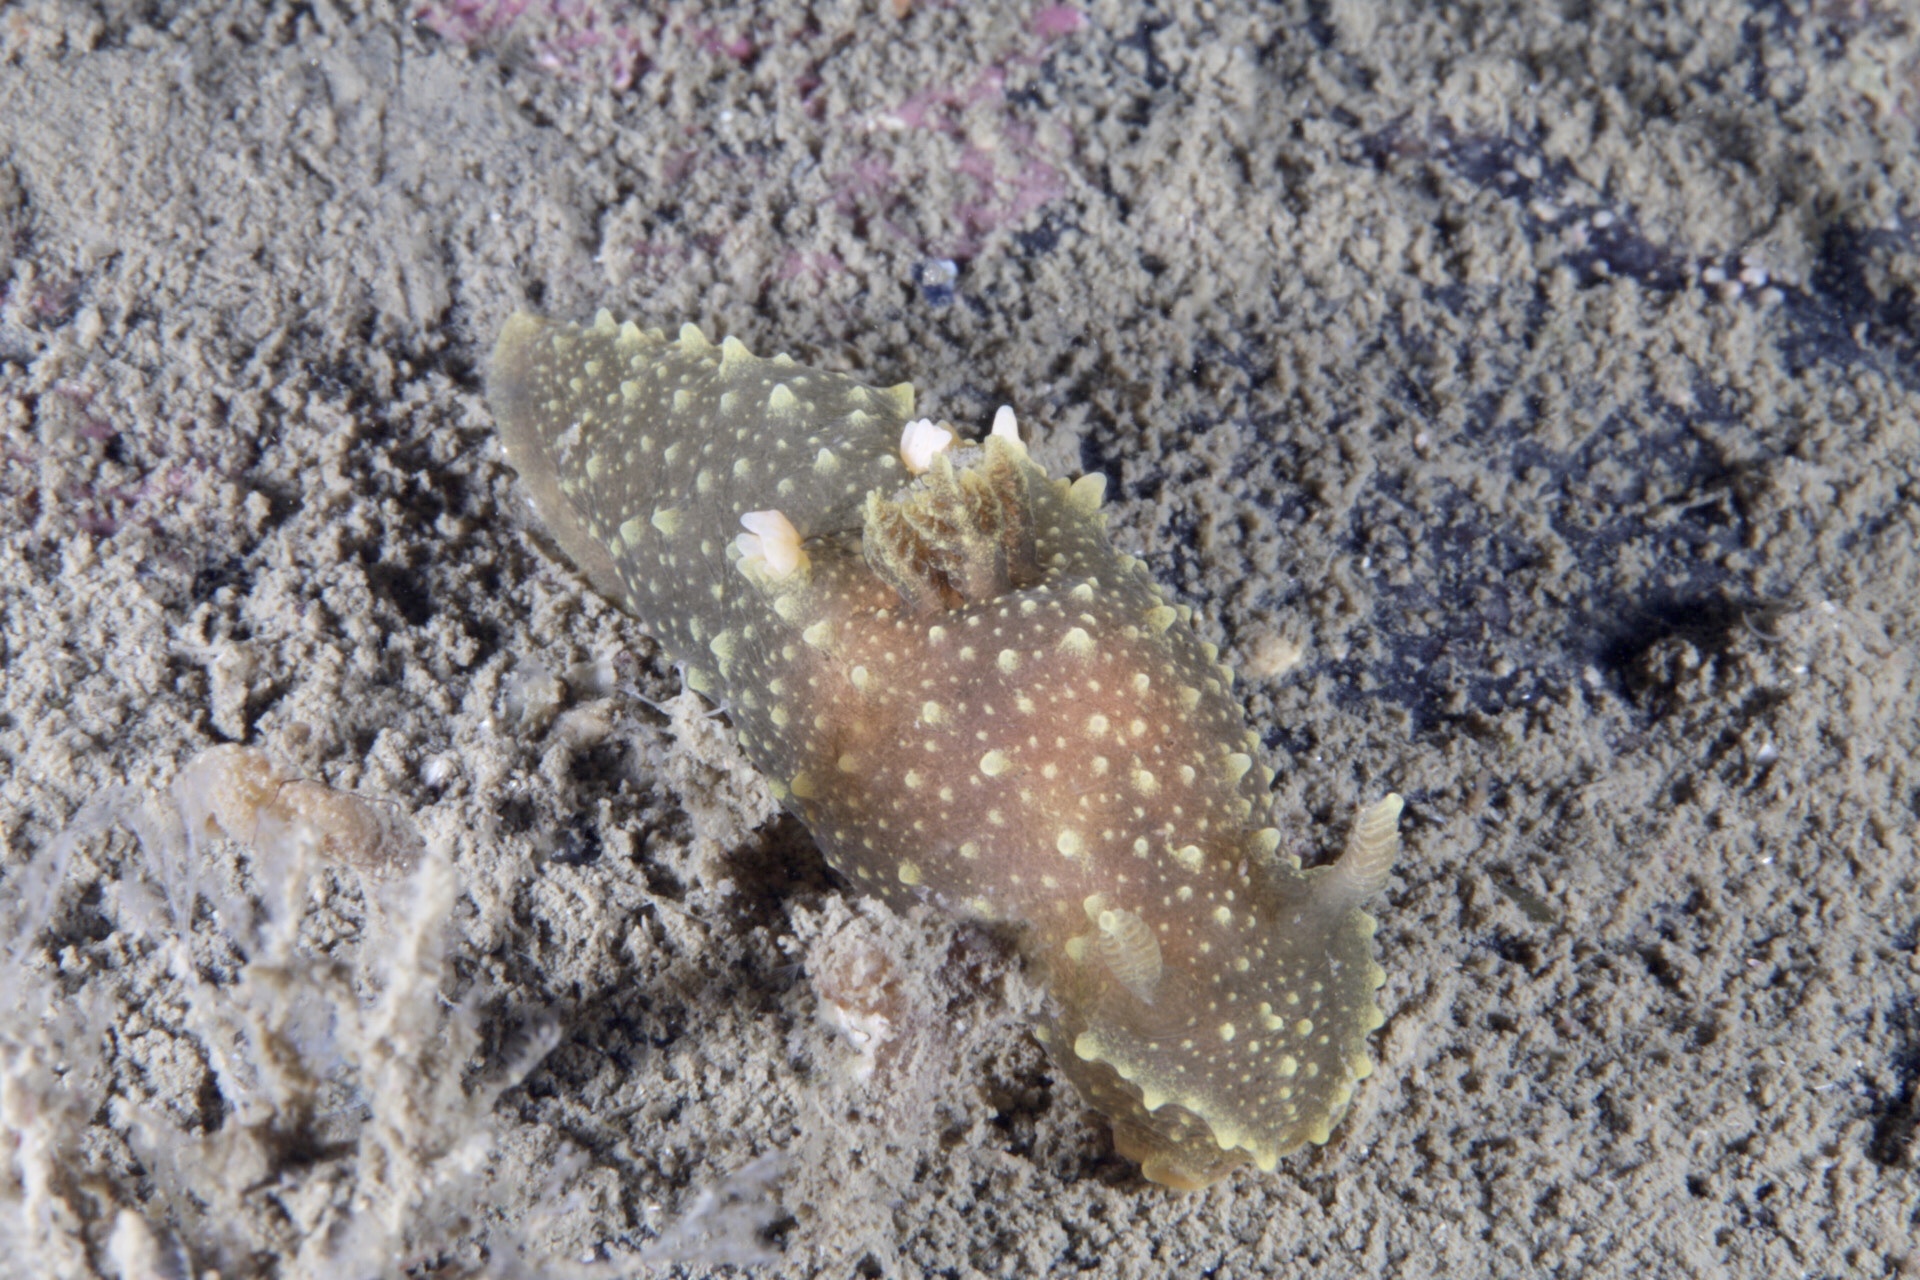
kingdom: Animalia
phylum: Mollusca
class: Gastropoda
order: Nudibranchia
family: Polyceridae
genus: Palio
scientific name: Palio dubia
